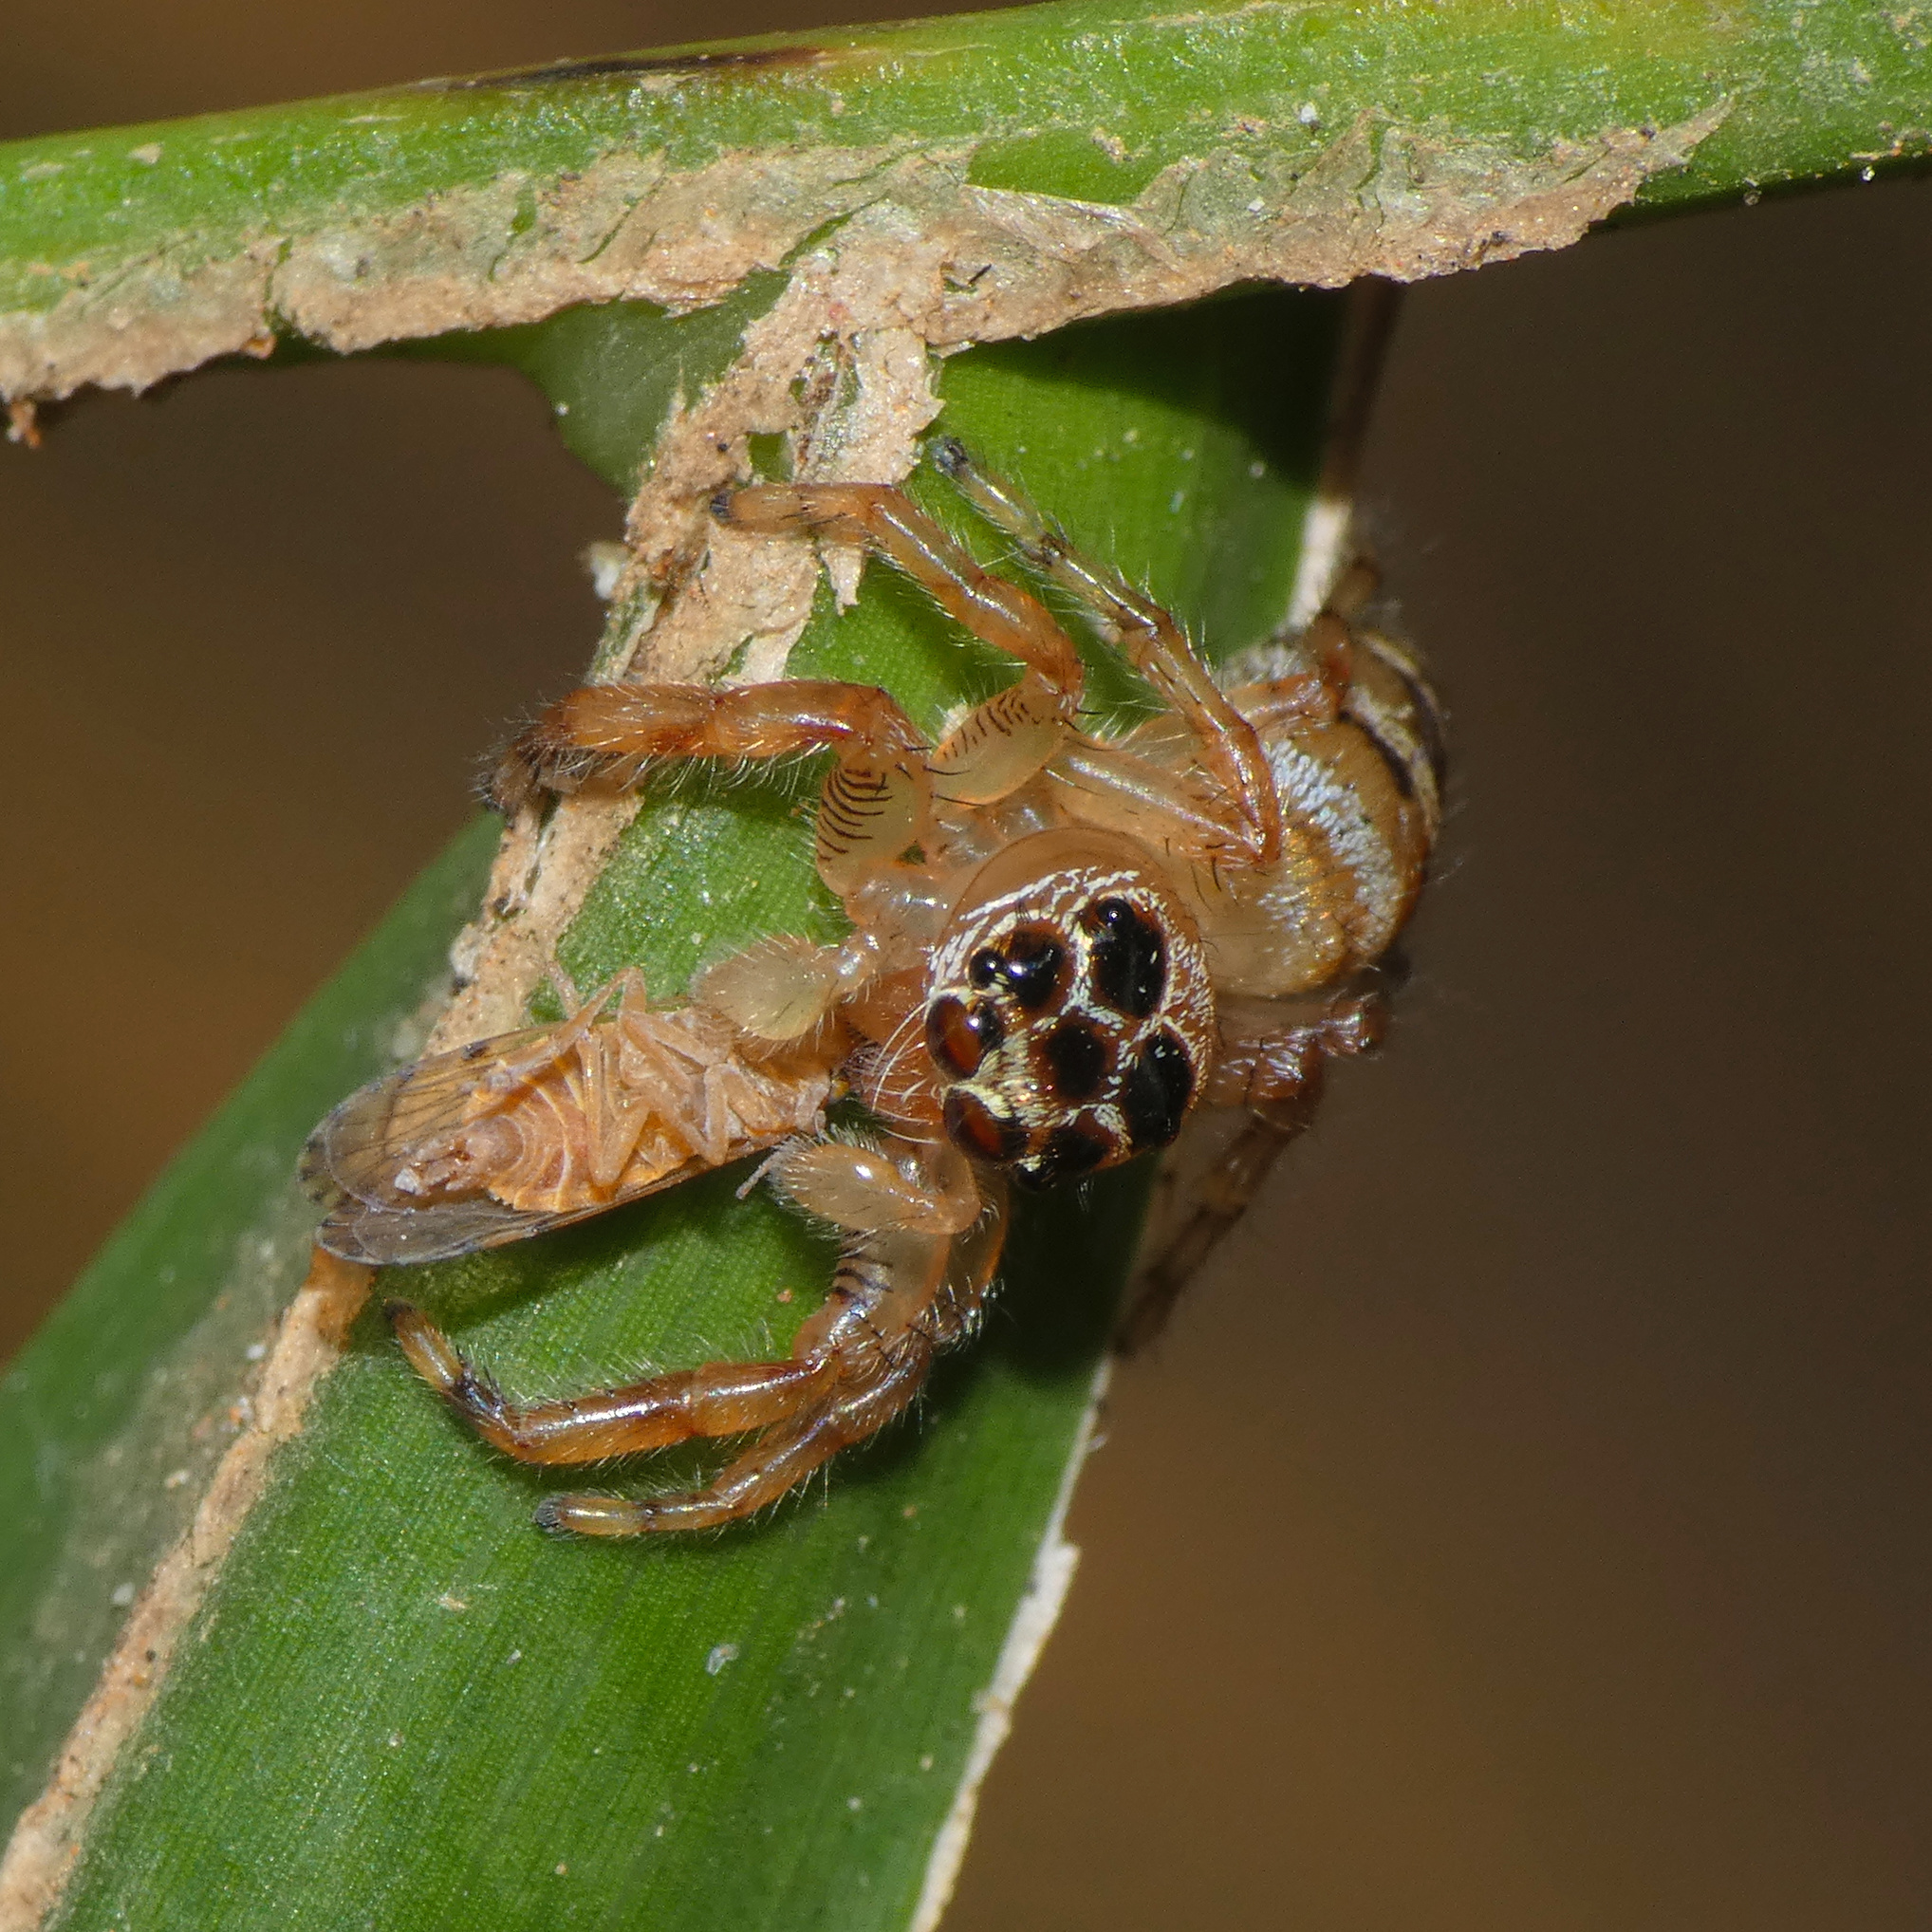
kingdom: Animalia
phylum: Arthropoda
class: Arachnida
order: Araneae
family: Salticidae
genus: Thyene
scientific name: Thyene natalii
